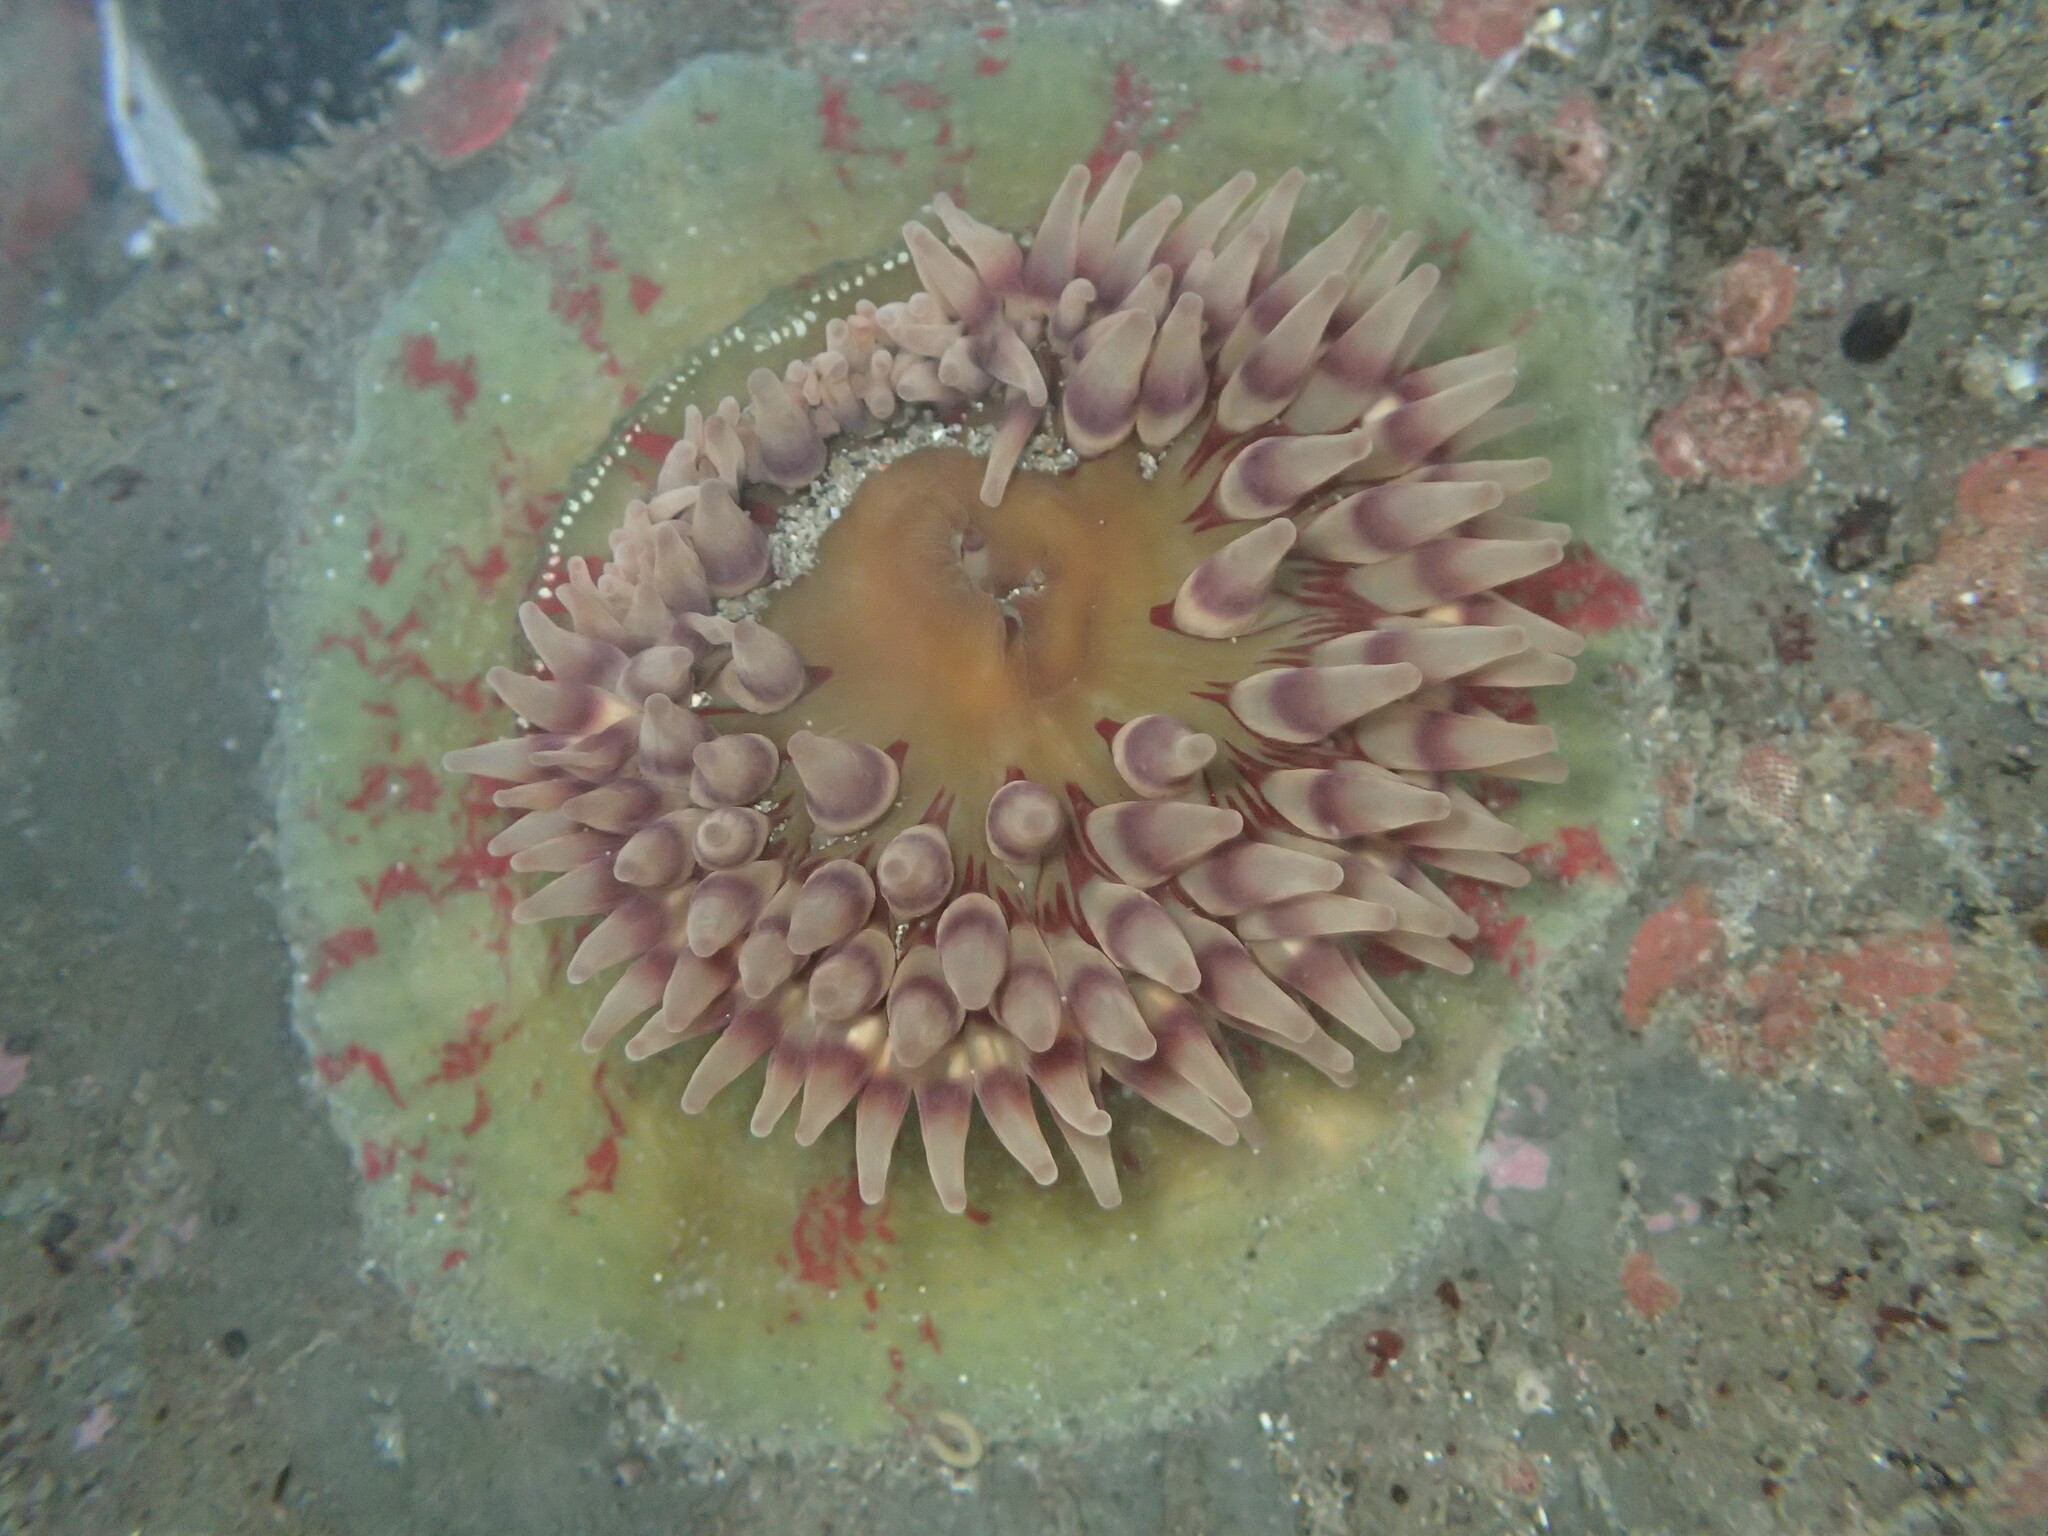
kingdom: Animalia
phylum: Cnidaria
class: Anthozoa
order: Actiniaria
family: Actiniidae
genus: Urticina
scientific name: Urticina grebelnyi
